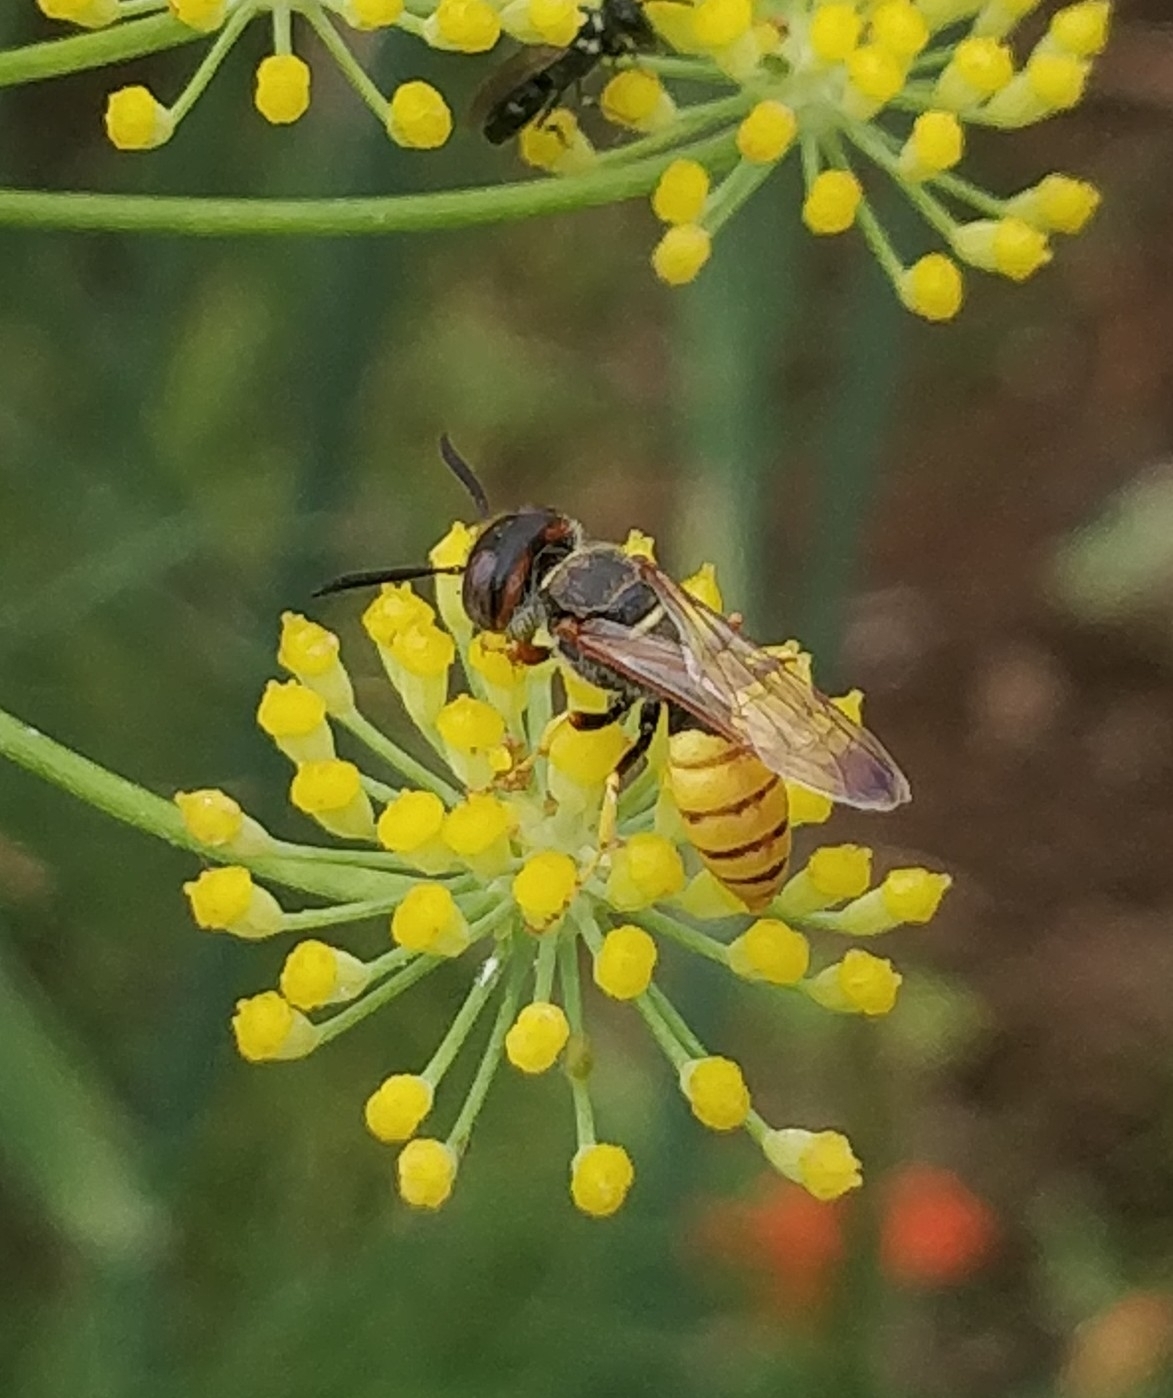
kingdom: Animalia
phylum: Arthropoda
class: Insecta
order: Hymenoptera
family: Crabronidae
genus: Philanthus
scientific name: Philanthus triangulum
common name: Bee wolf
